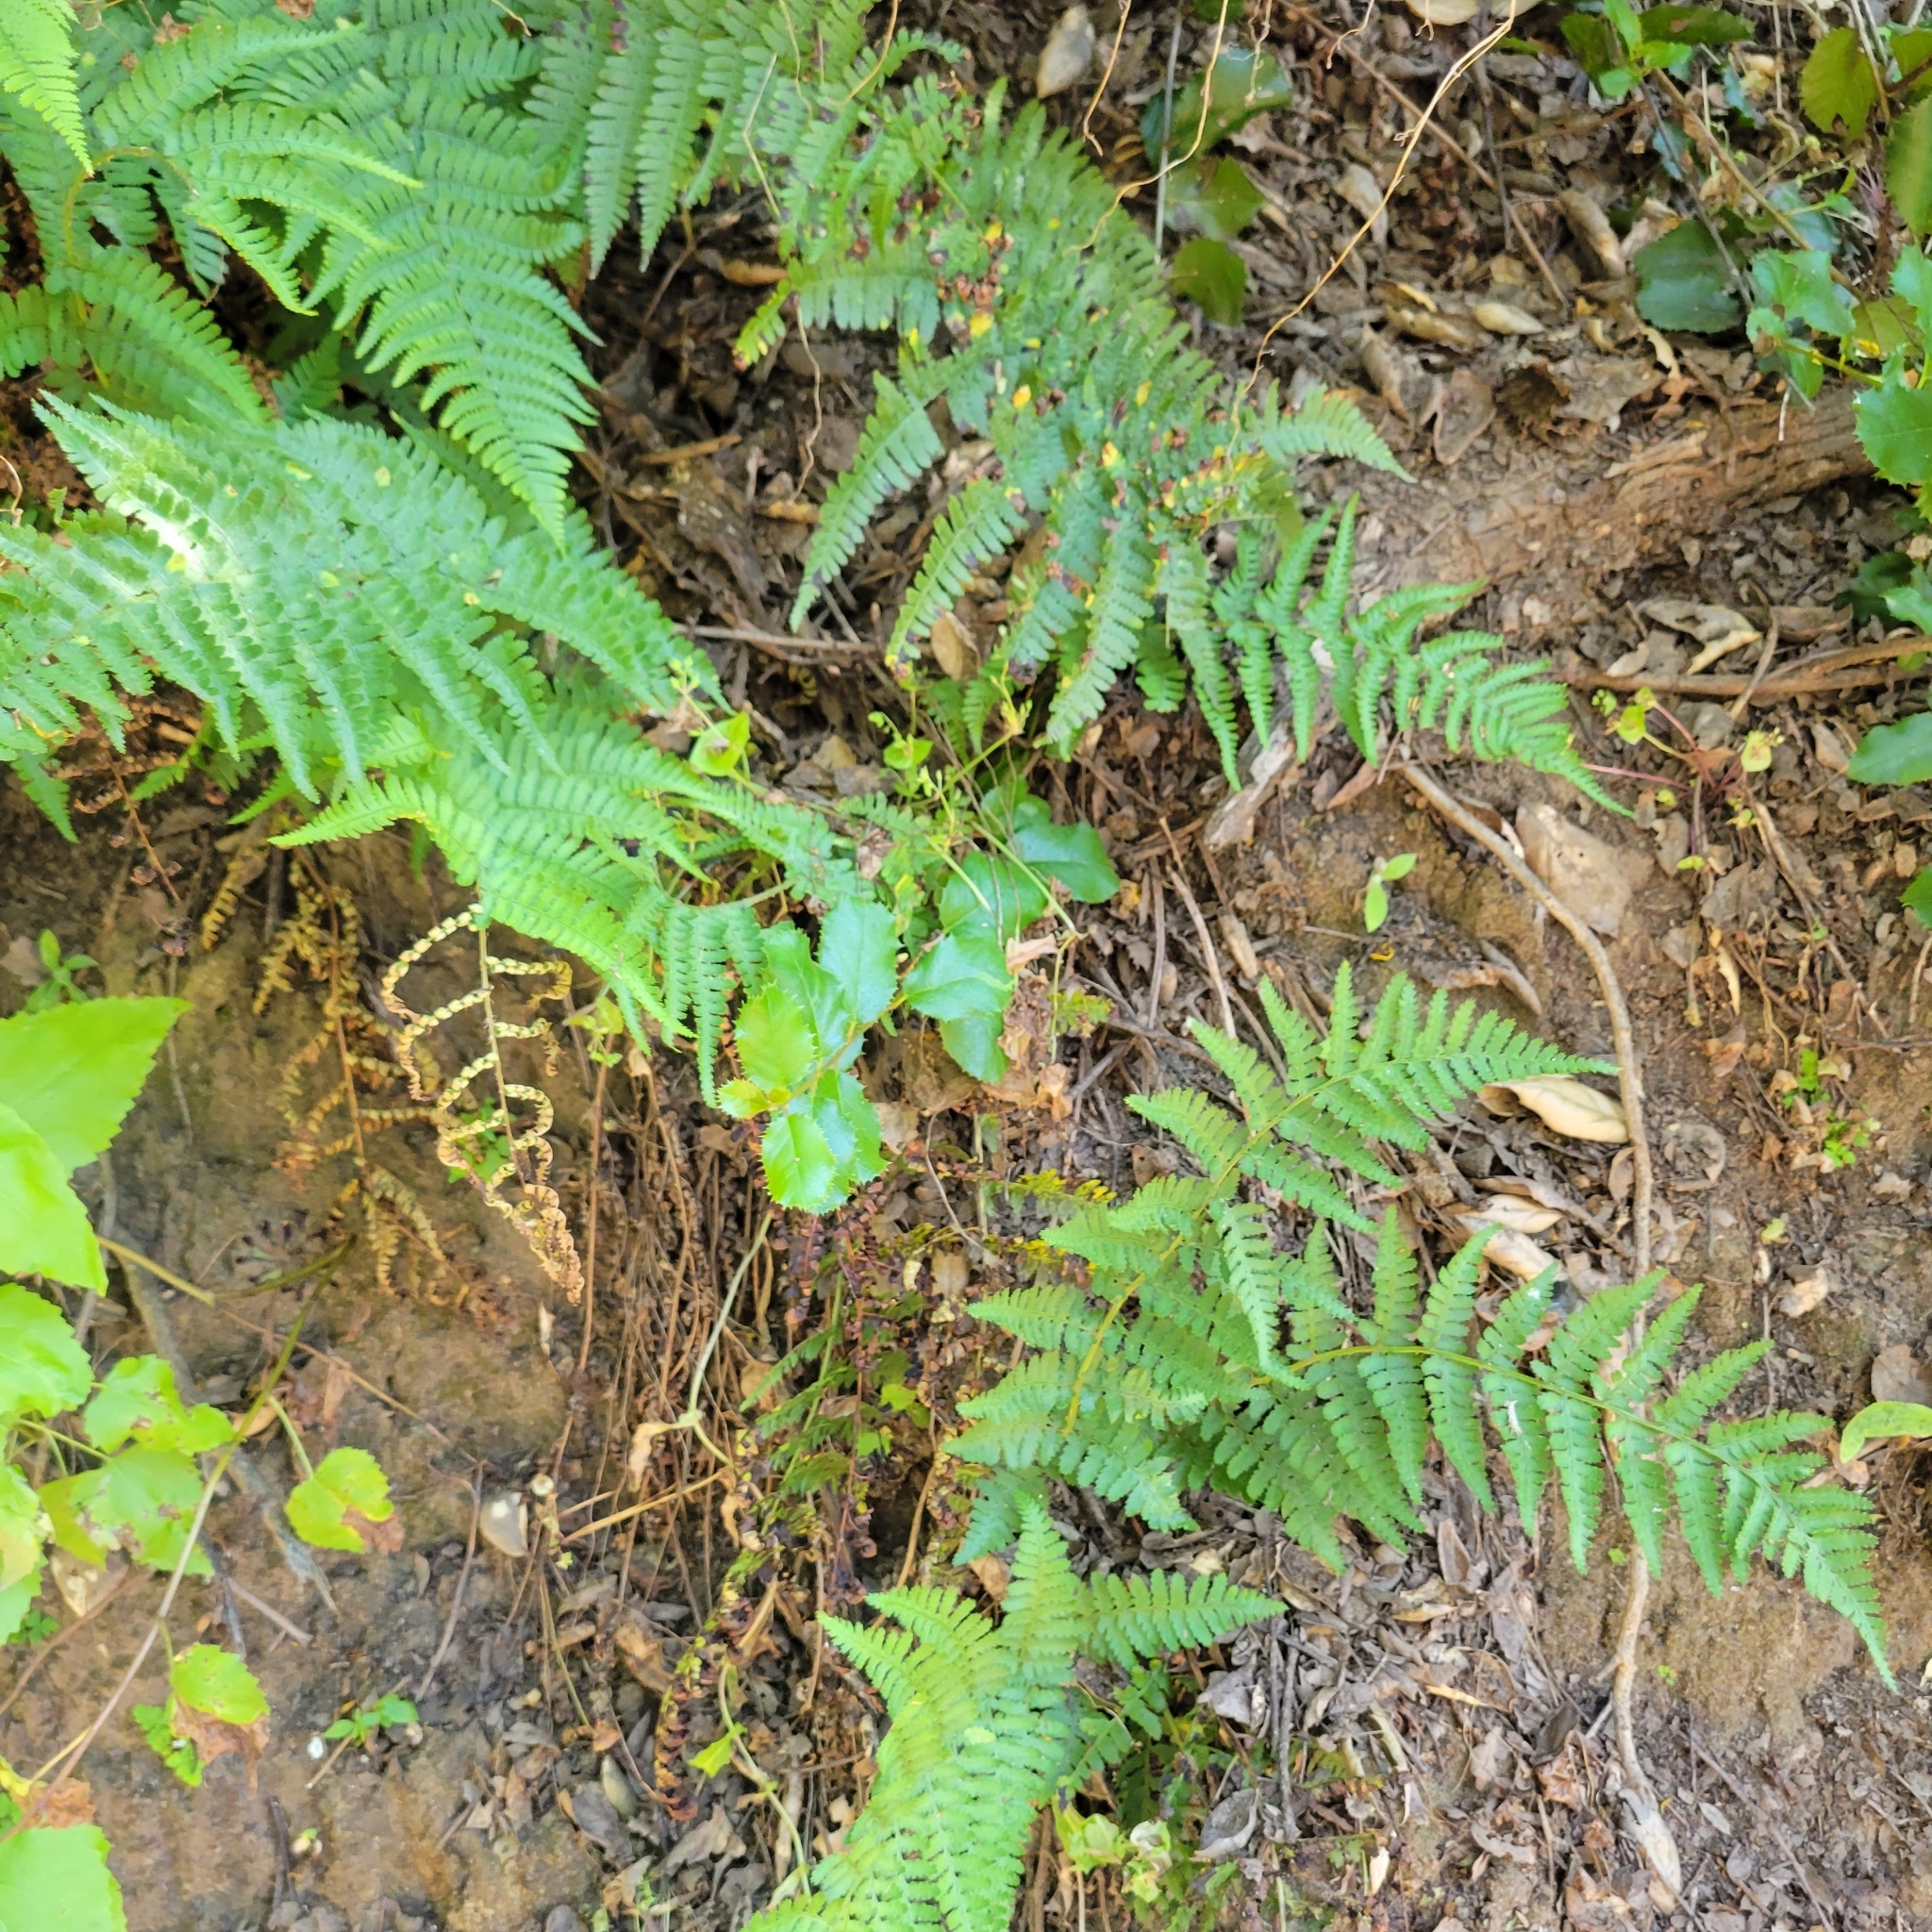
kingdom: Plantae
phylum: Tracheophyta
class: Polypodiopsida
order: Polypodiales
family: Dryopteridaceae
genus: Dryopteris
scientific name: Dryopteris arguta
